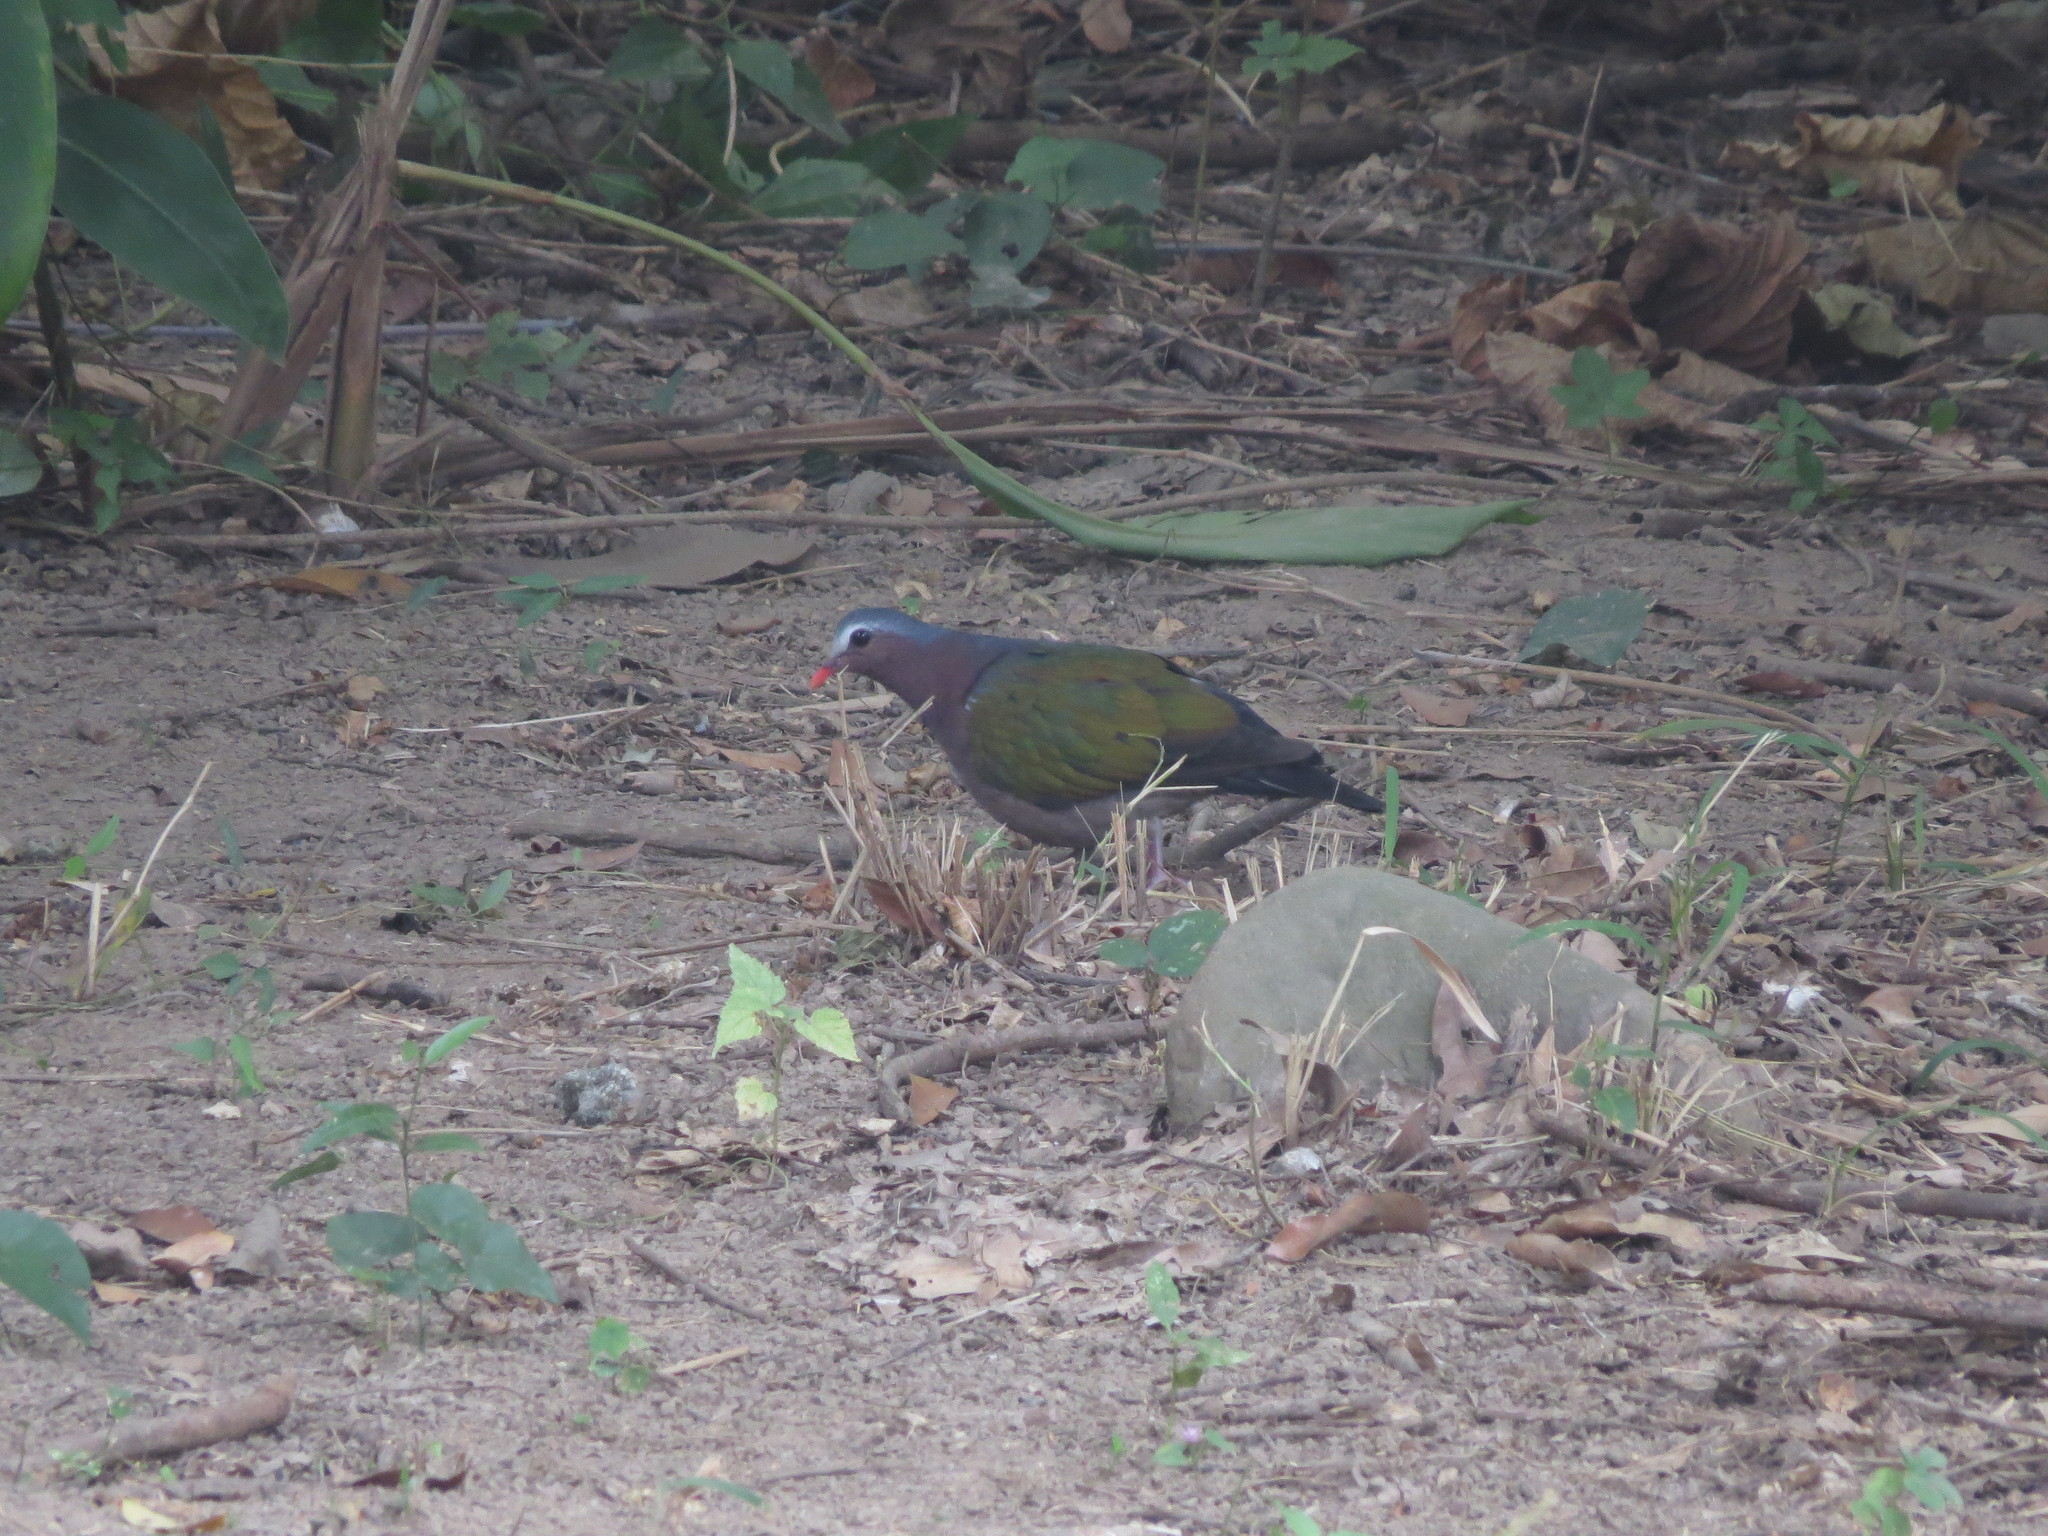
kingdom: Animalia
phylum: Chordata
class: Aves
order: Columbiformes
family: Columbidae
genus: Chalcophaps
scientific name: Chalcophaps indica
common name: Common emerald dove
